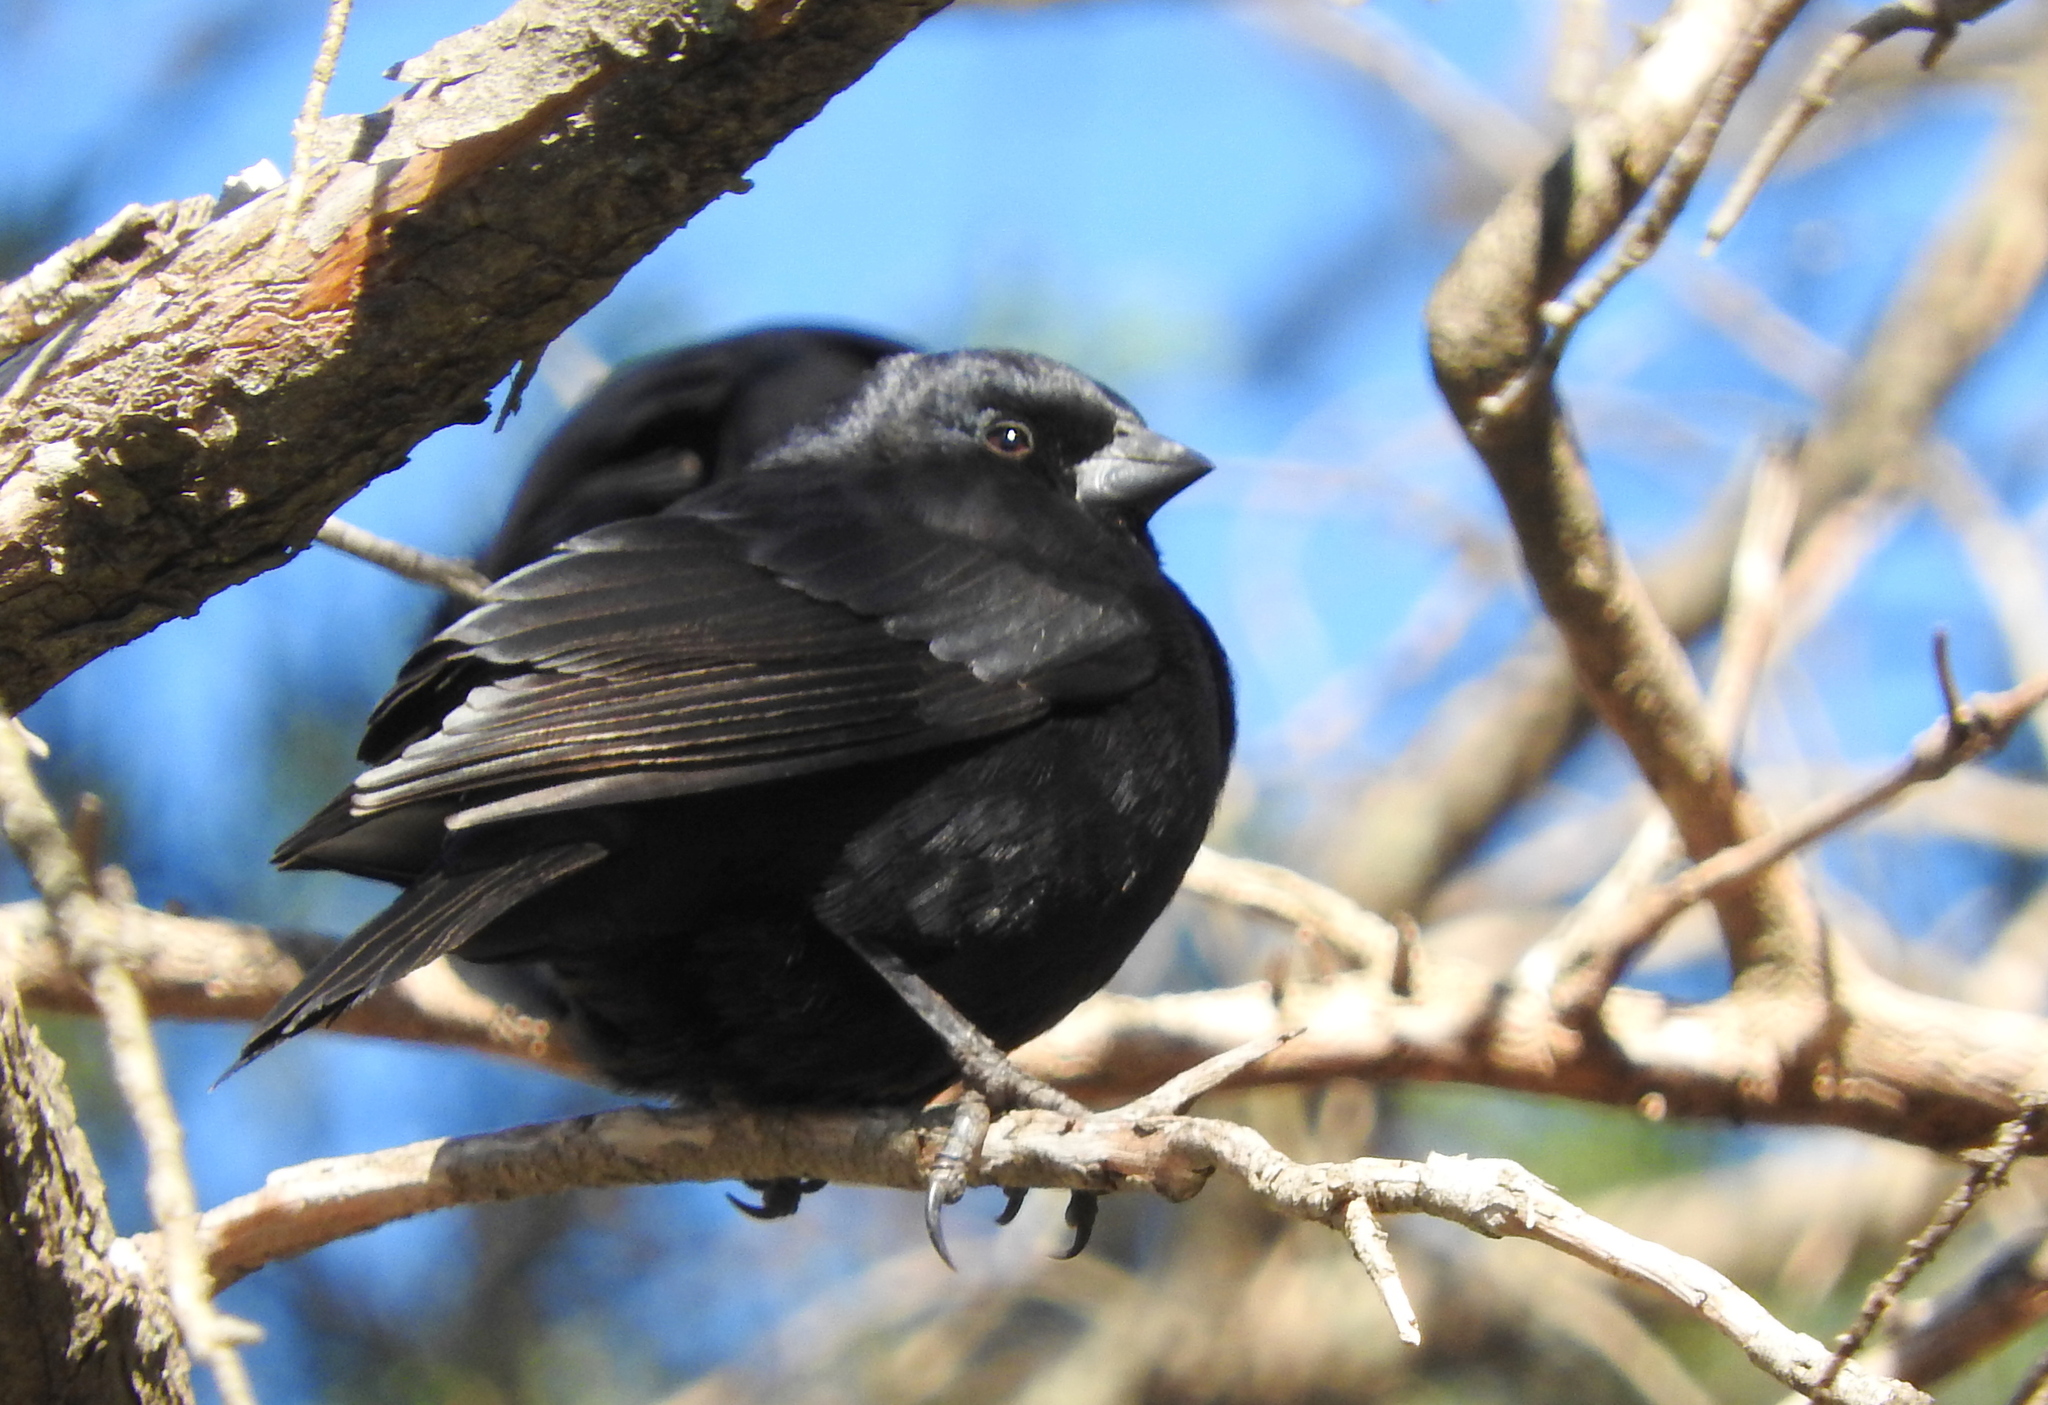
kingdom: Animalia
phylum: Chordata
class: Aves
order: Passeriformes
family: Icteridae
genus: Molothrus
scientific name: Molothrus rufoaxillaris
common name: Screaming cowbird
